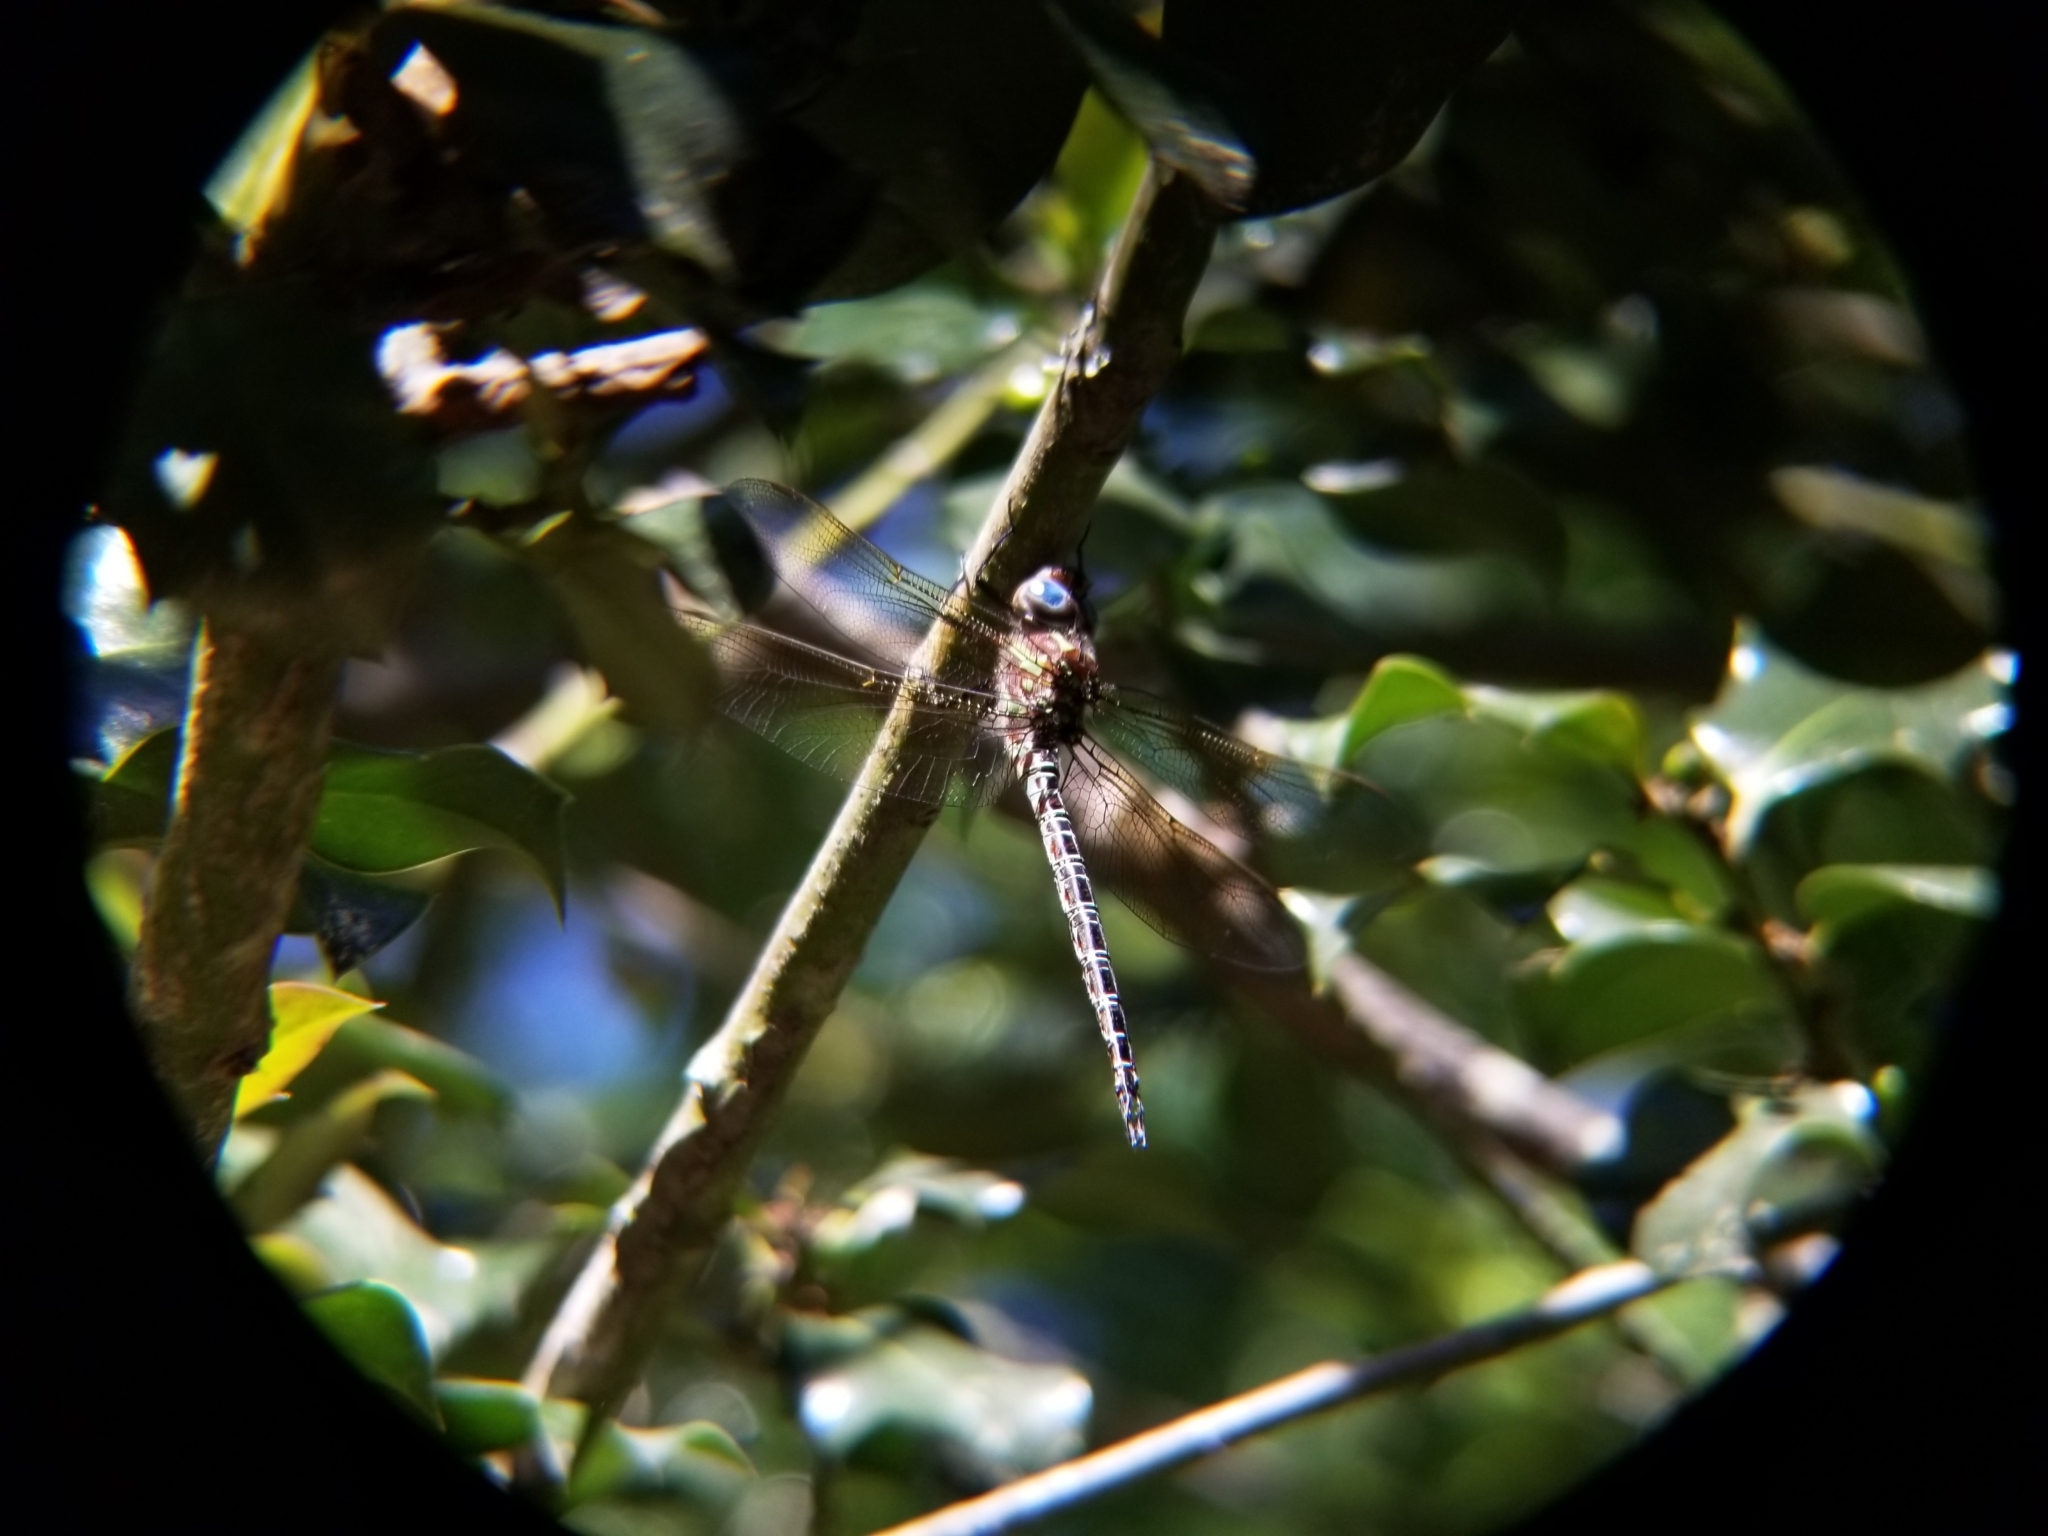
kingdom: Animalia
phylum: Arthropoda
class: Insecta
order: Odonata
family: Aeshnidae
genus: Epiaeschna
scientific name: Epiaeschna heros
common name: Swamp darner
